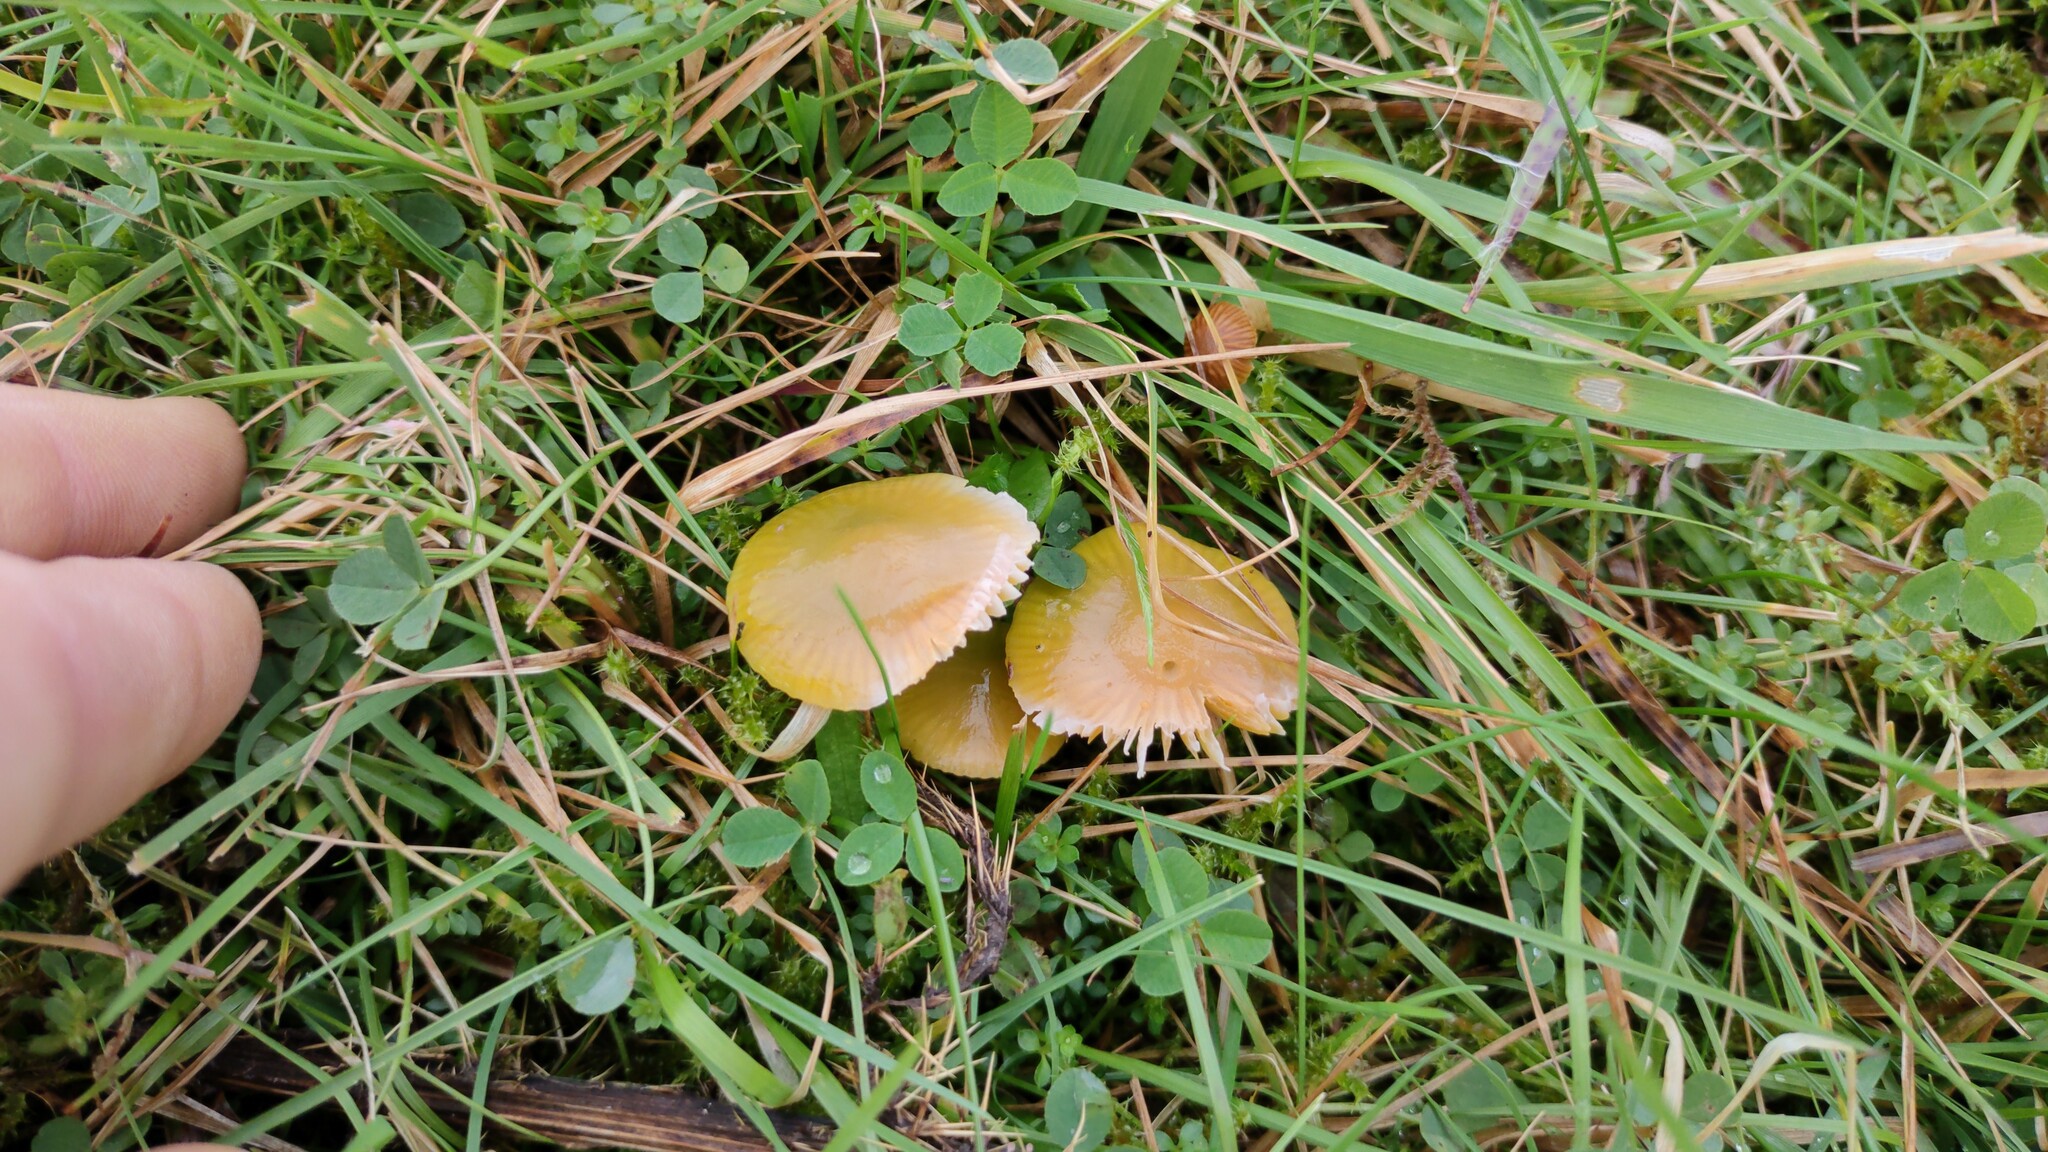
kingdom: Fungi
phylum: Basidiomycota
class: Agaricomycetes
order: Agaricales
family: Hygrophoraceae
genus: Gliophorus
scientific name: Gliophorus psittacinus
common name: Parrot wax-cap
